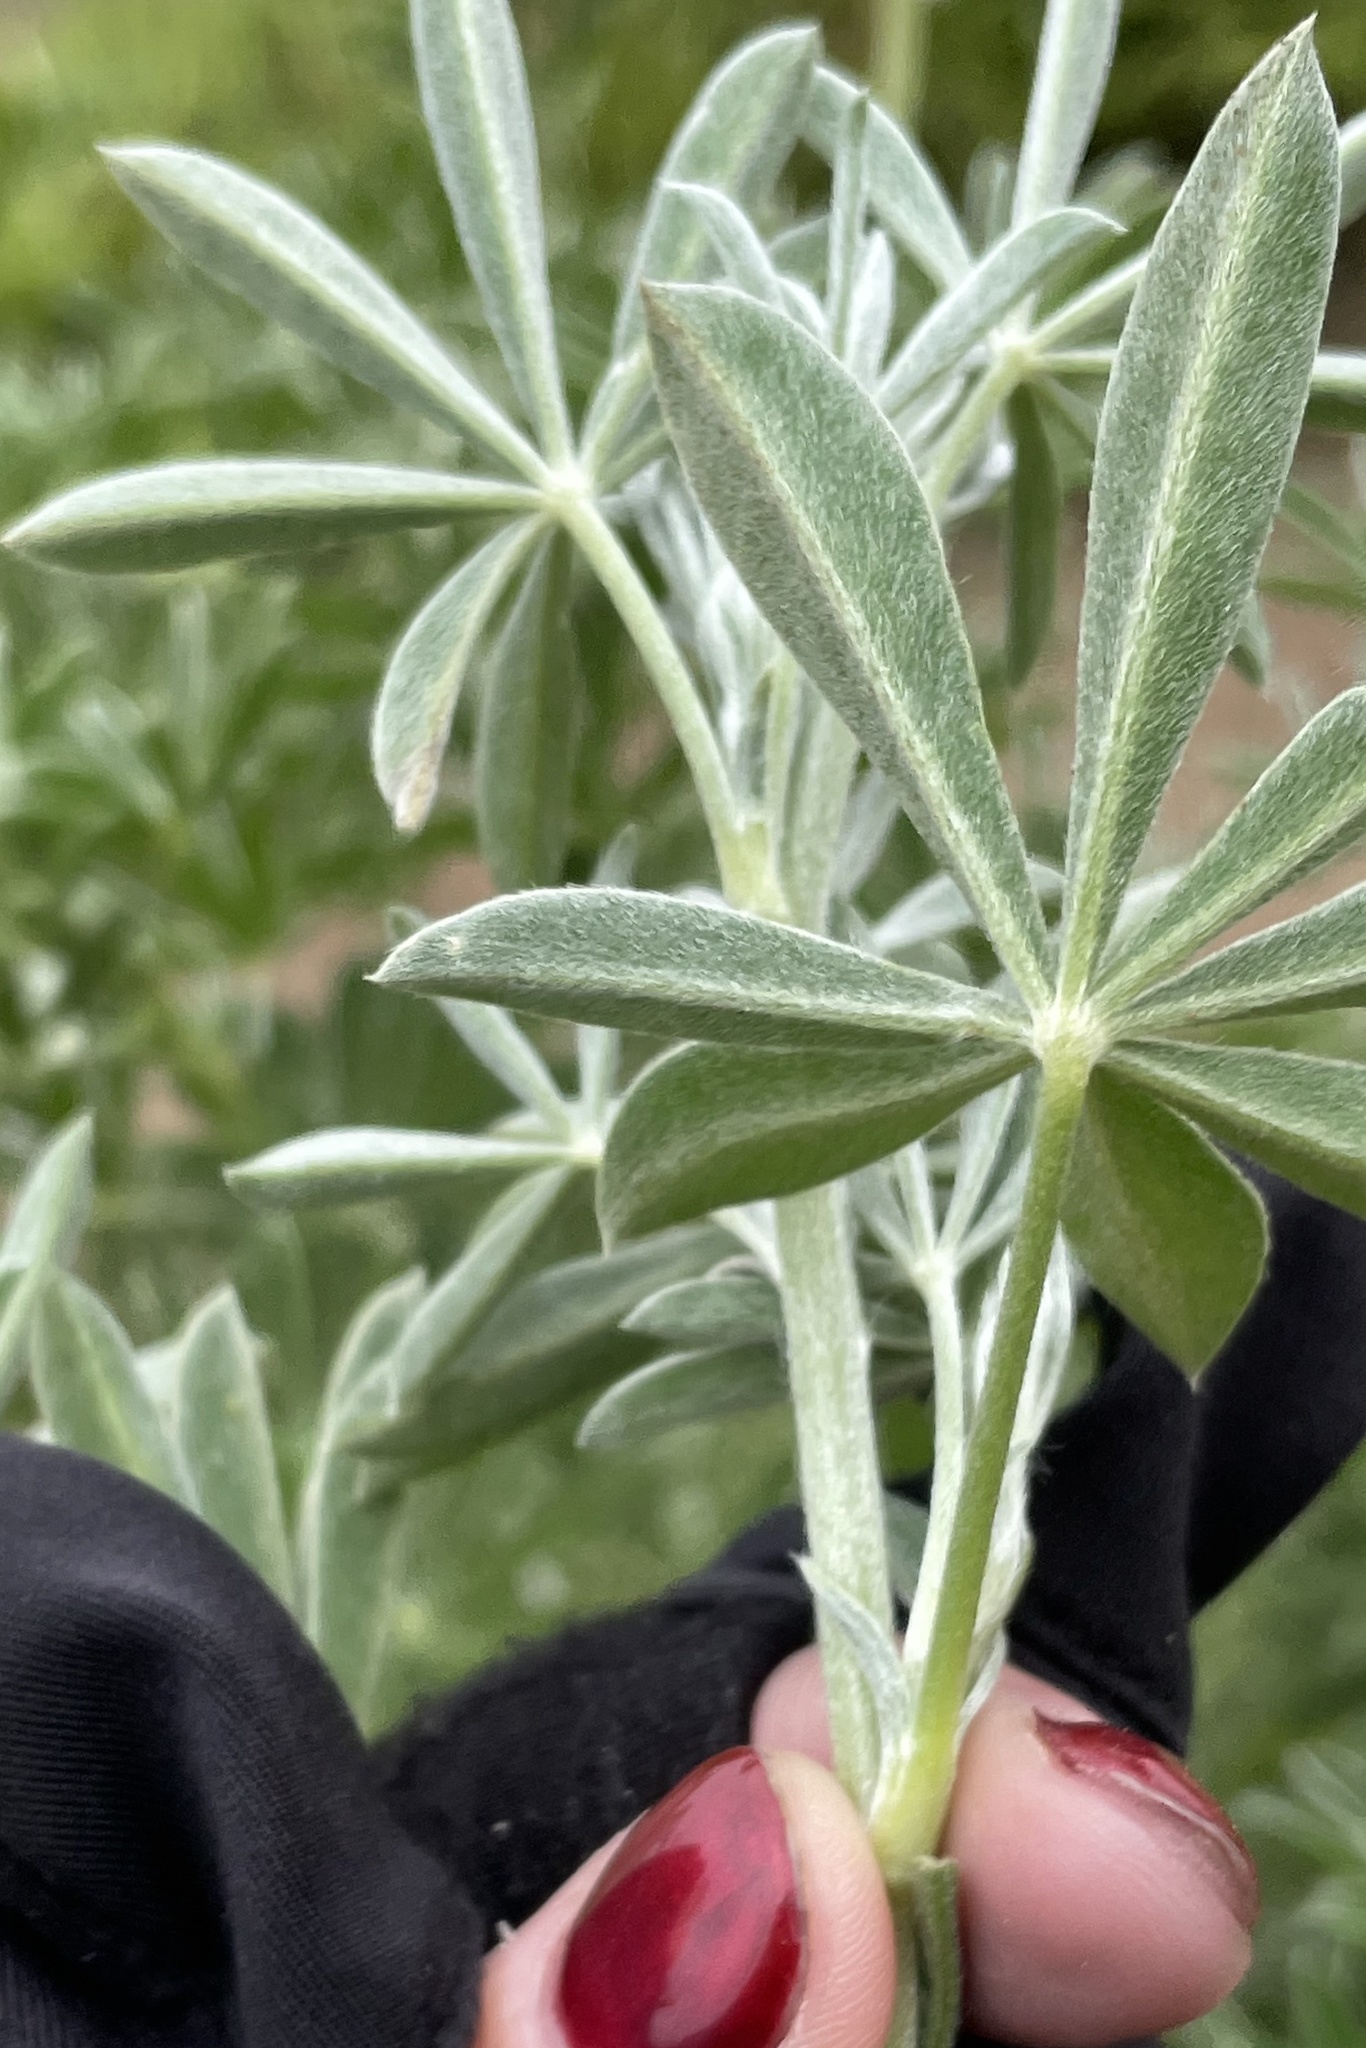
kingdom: Plantae
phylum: Tracheophyta
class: Magnoliopsida
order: Fabales
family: Fabaceae
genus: Lupinus
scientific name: Lupinus arboreus
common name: Yellow bush lupine
